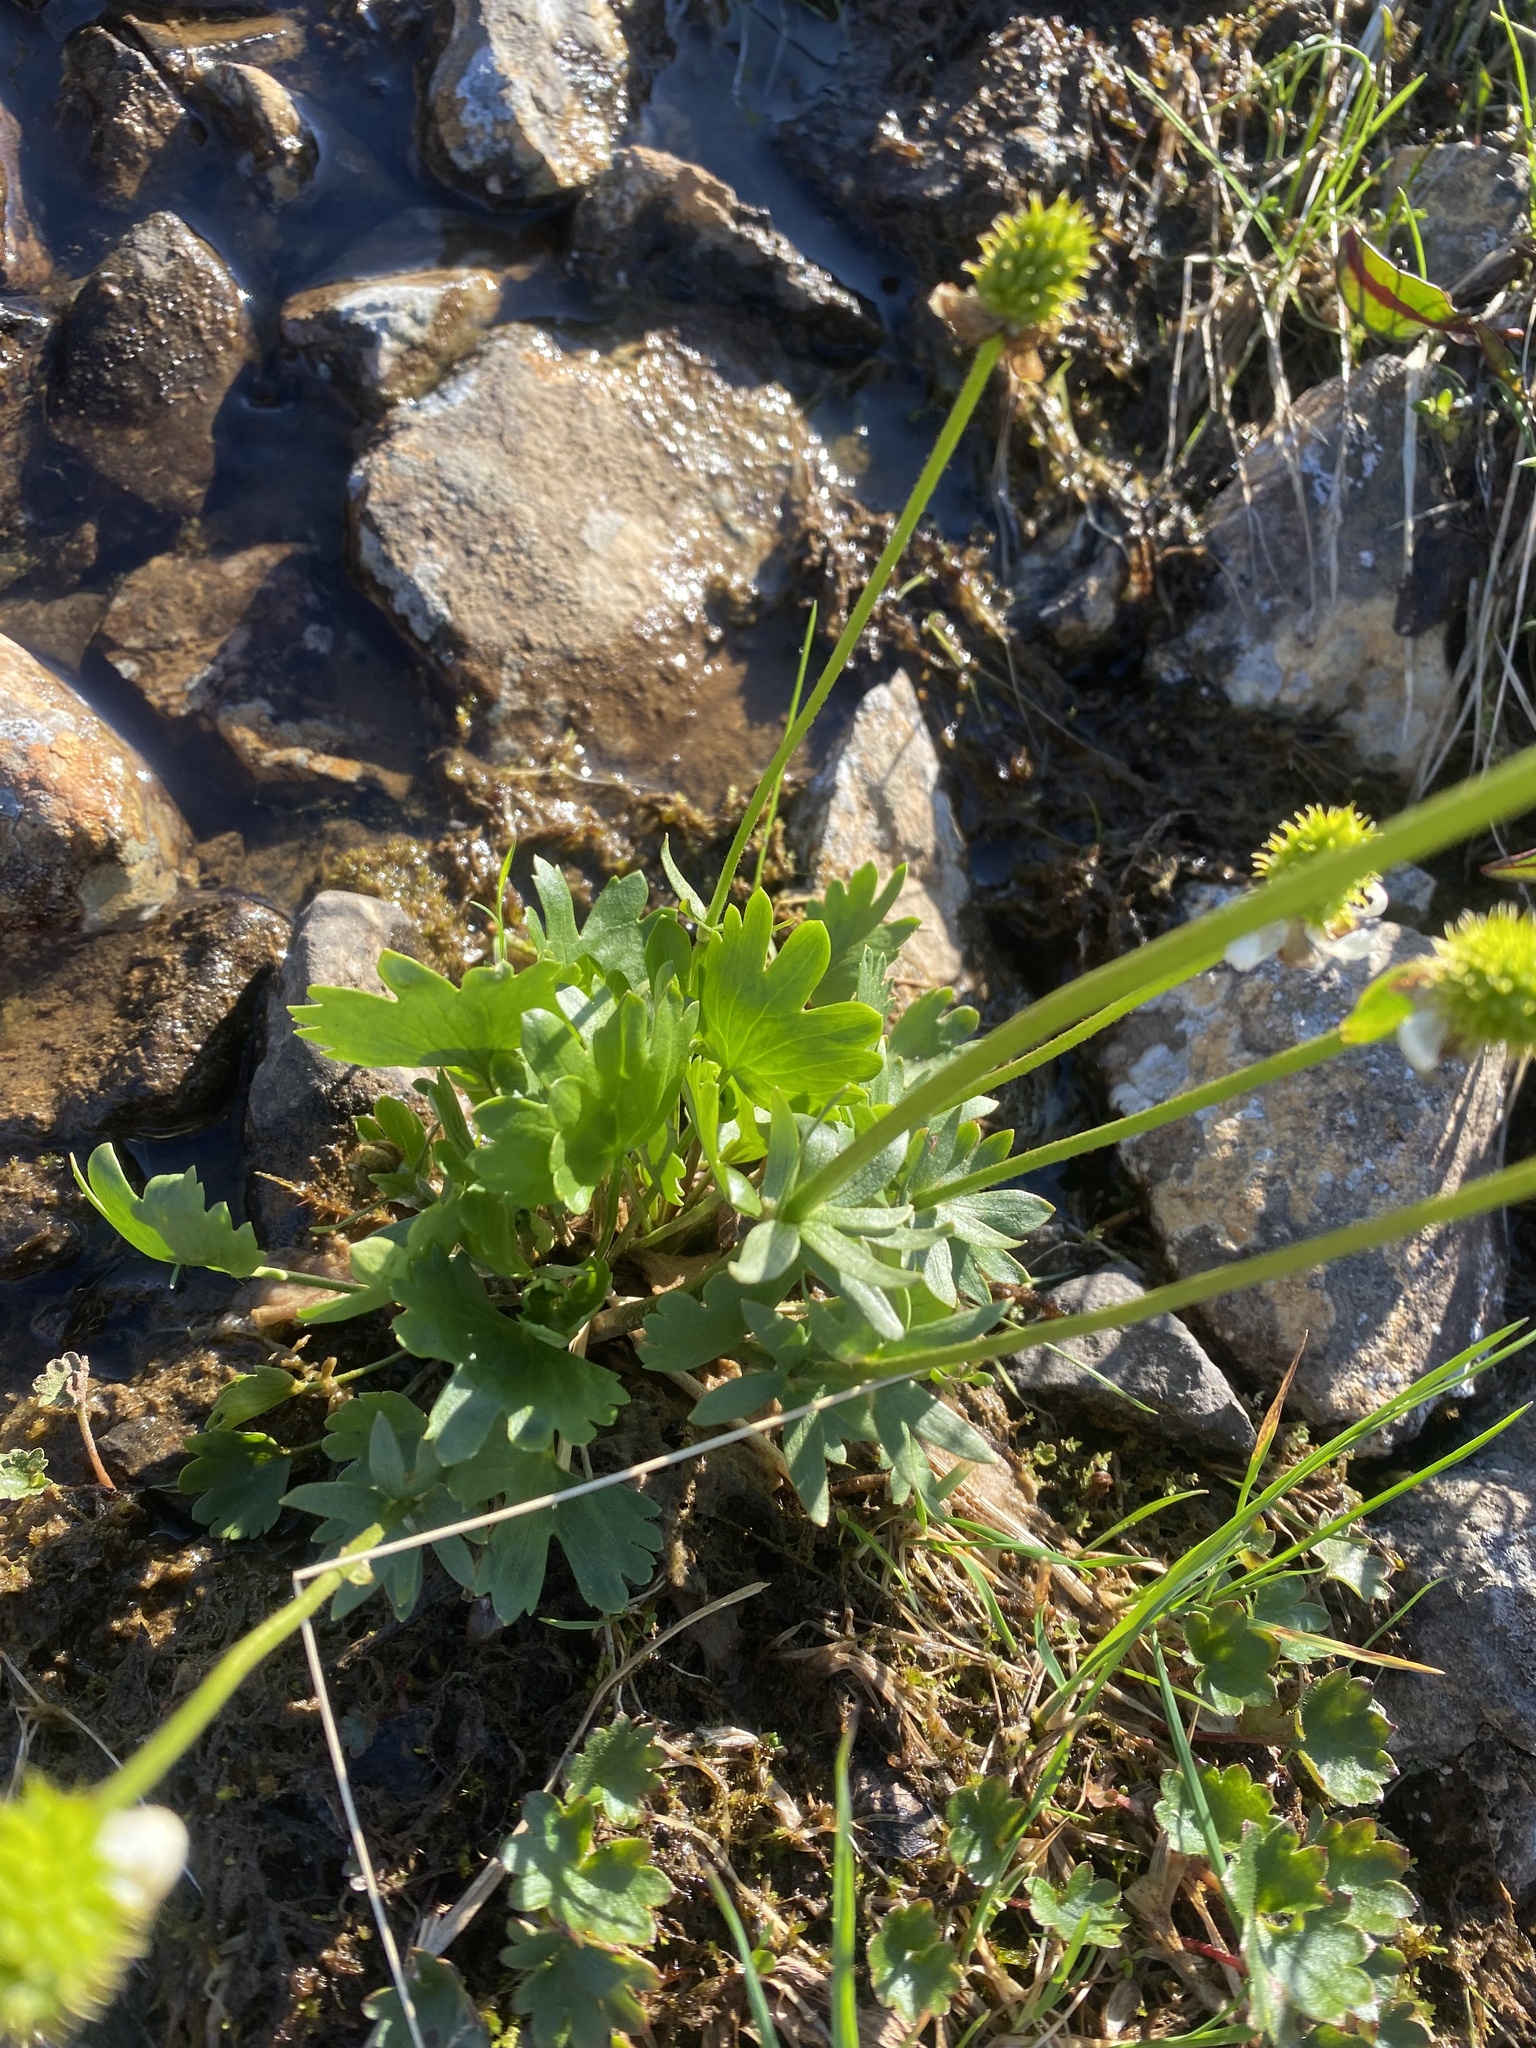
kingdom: Plantae
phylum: Tracheophyta
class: Magnoliopsida
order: Ranunculales
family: Ranunculaceae
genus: Ranunculus
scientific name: Ranunculus nivalis
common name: Snow buttercup
